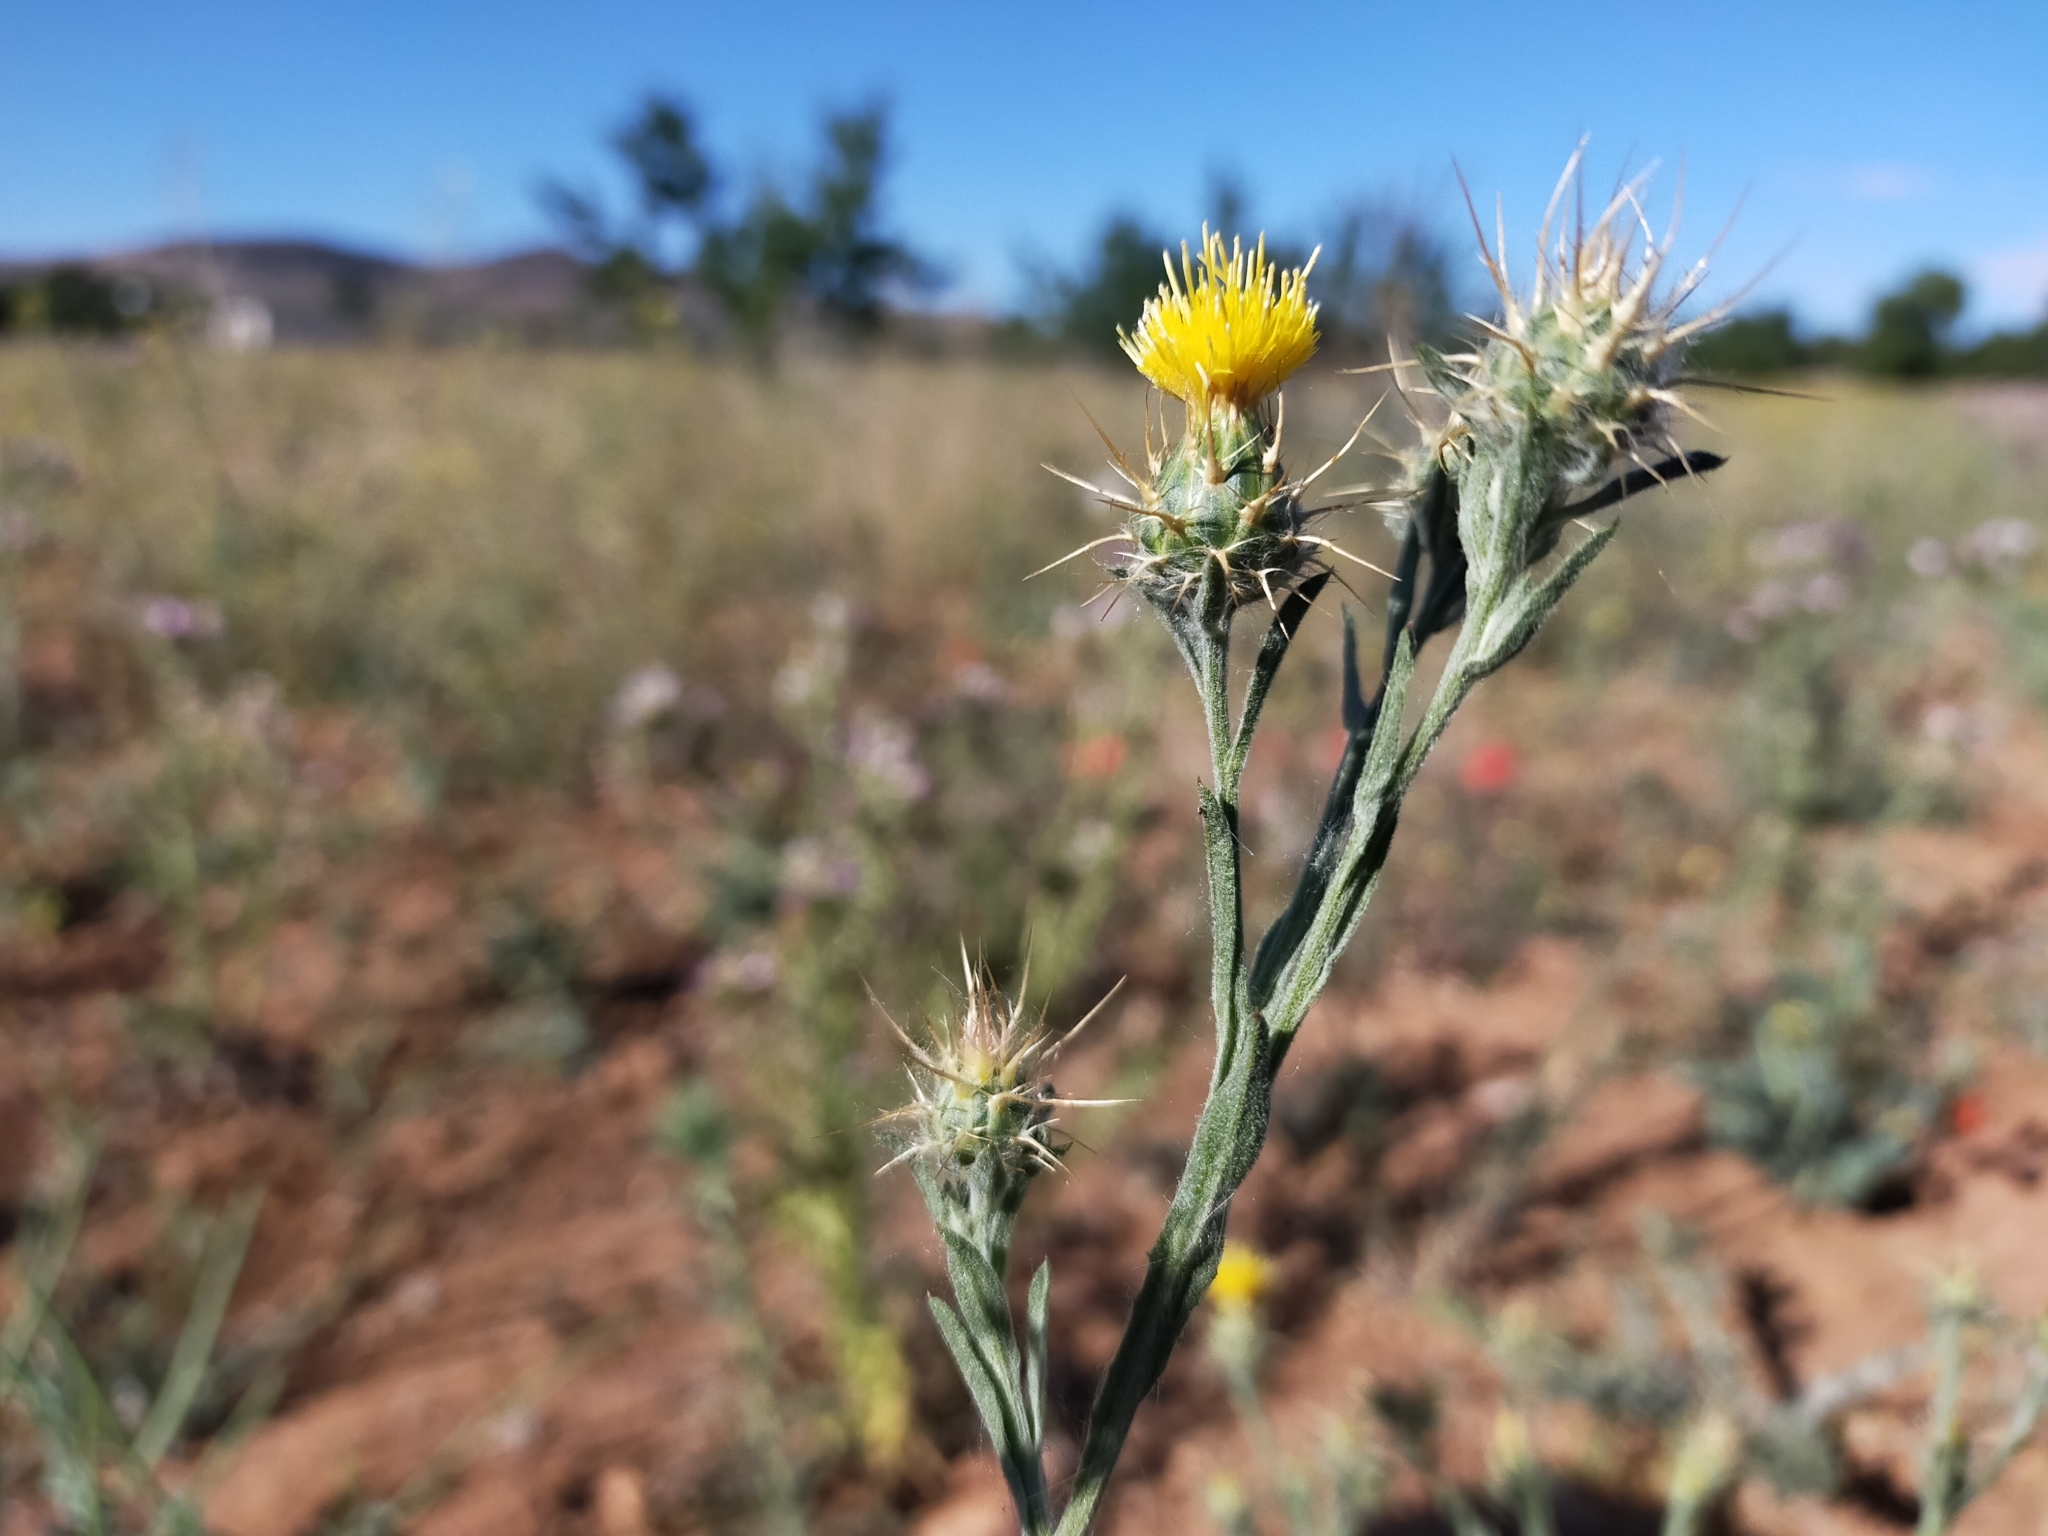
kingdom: Plantae
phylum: Tracheophyta
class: Magnoliopsida
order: Asterales
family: Asteraceae
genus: Centaurea
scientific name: Centaurea melitensis
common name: Maltese star-thistle
